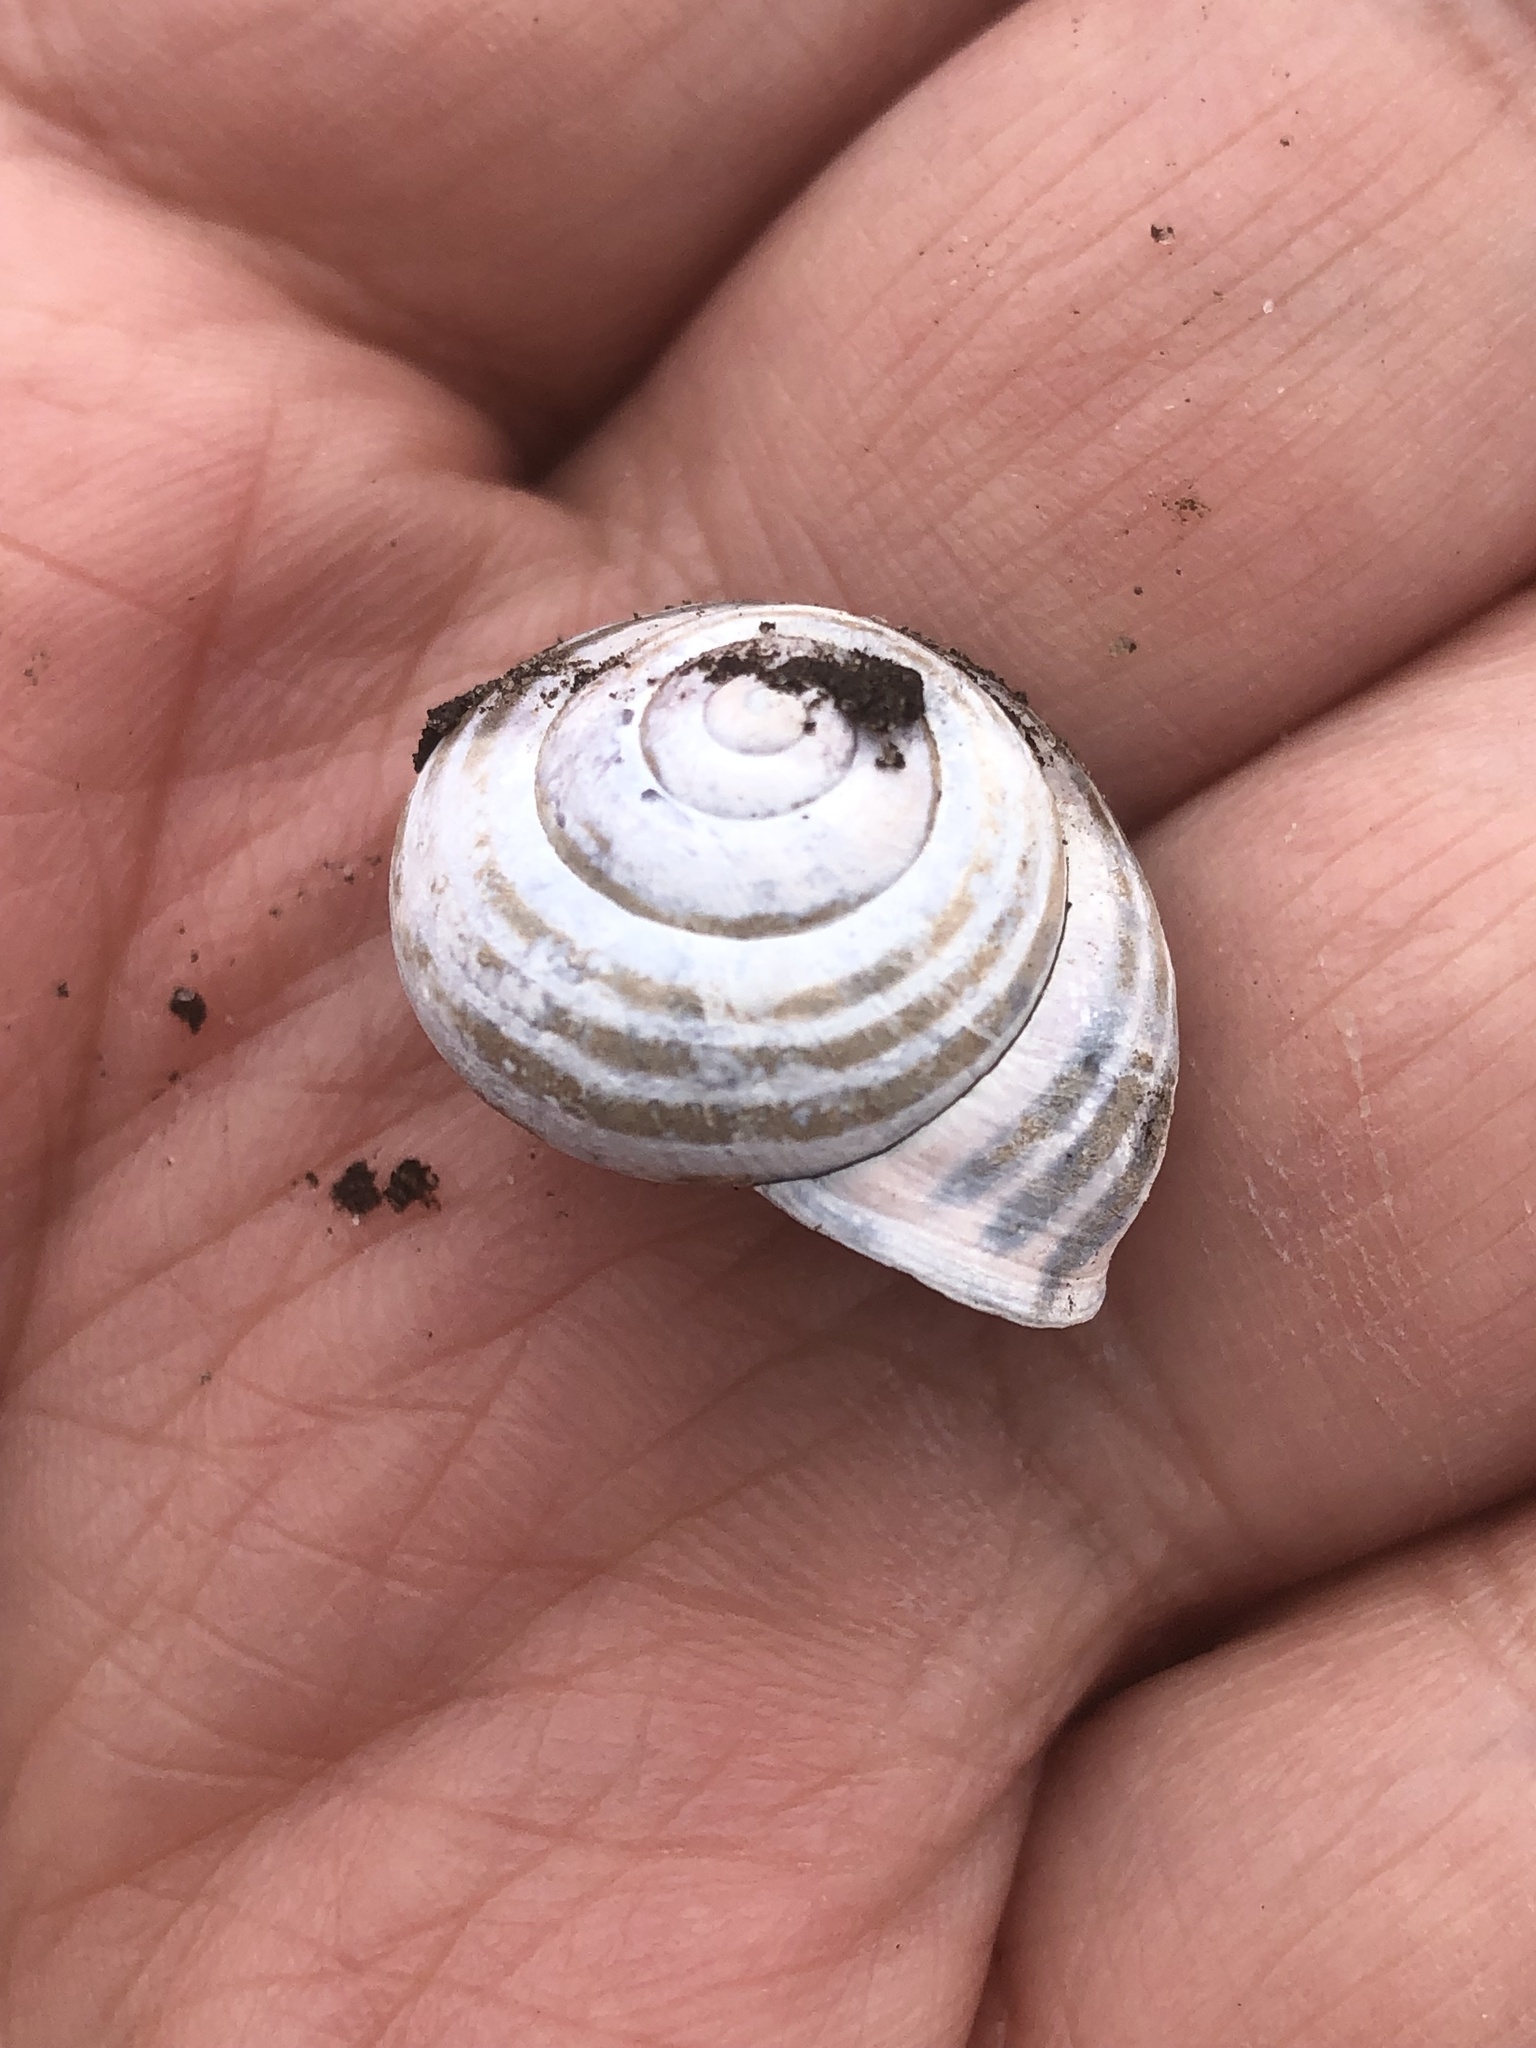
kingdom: Animalia
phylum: Mollusca
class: Gastropoda
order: Stylommatophora
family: Helicidae
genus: Cepaea
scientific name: Cepaea nemoralis
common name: Grovesnail
